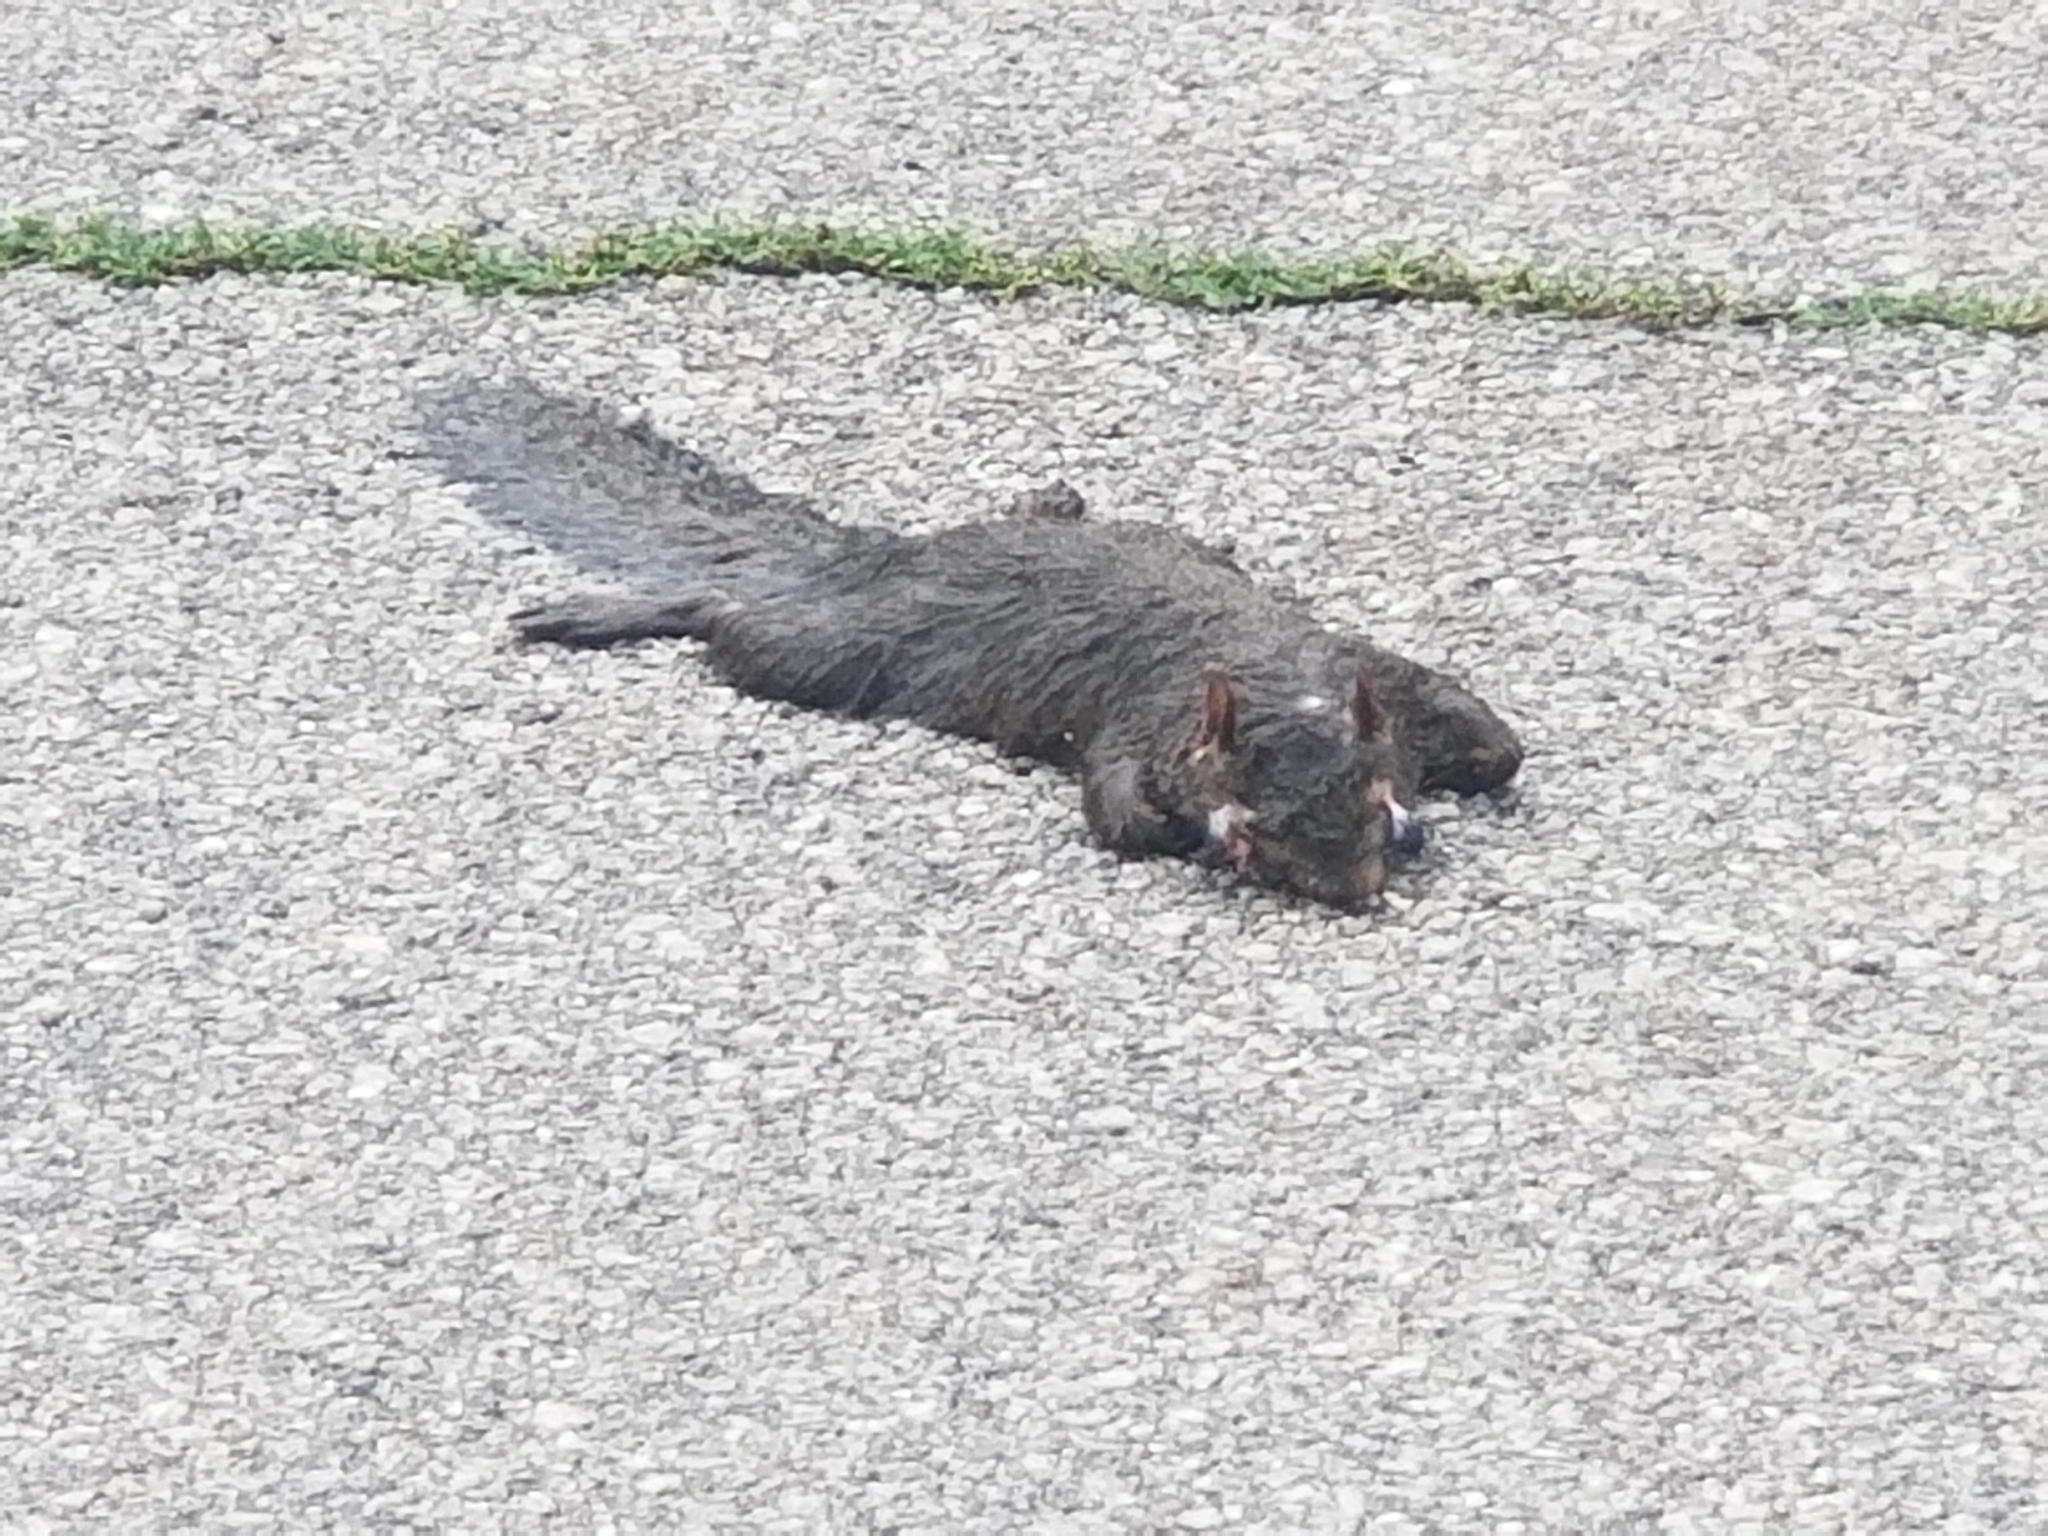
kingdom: Animalia
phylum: Chordata
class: Mammalia
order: Rodentia
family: Sciuridae
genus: Sciurus
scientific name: Sciurus carolinensis
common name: Eastern gray squirrel
